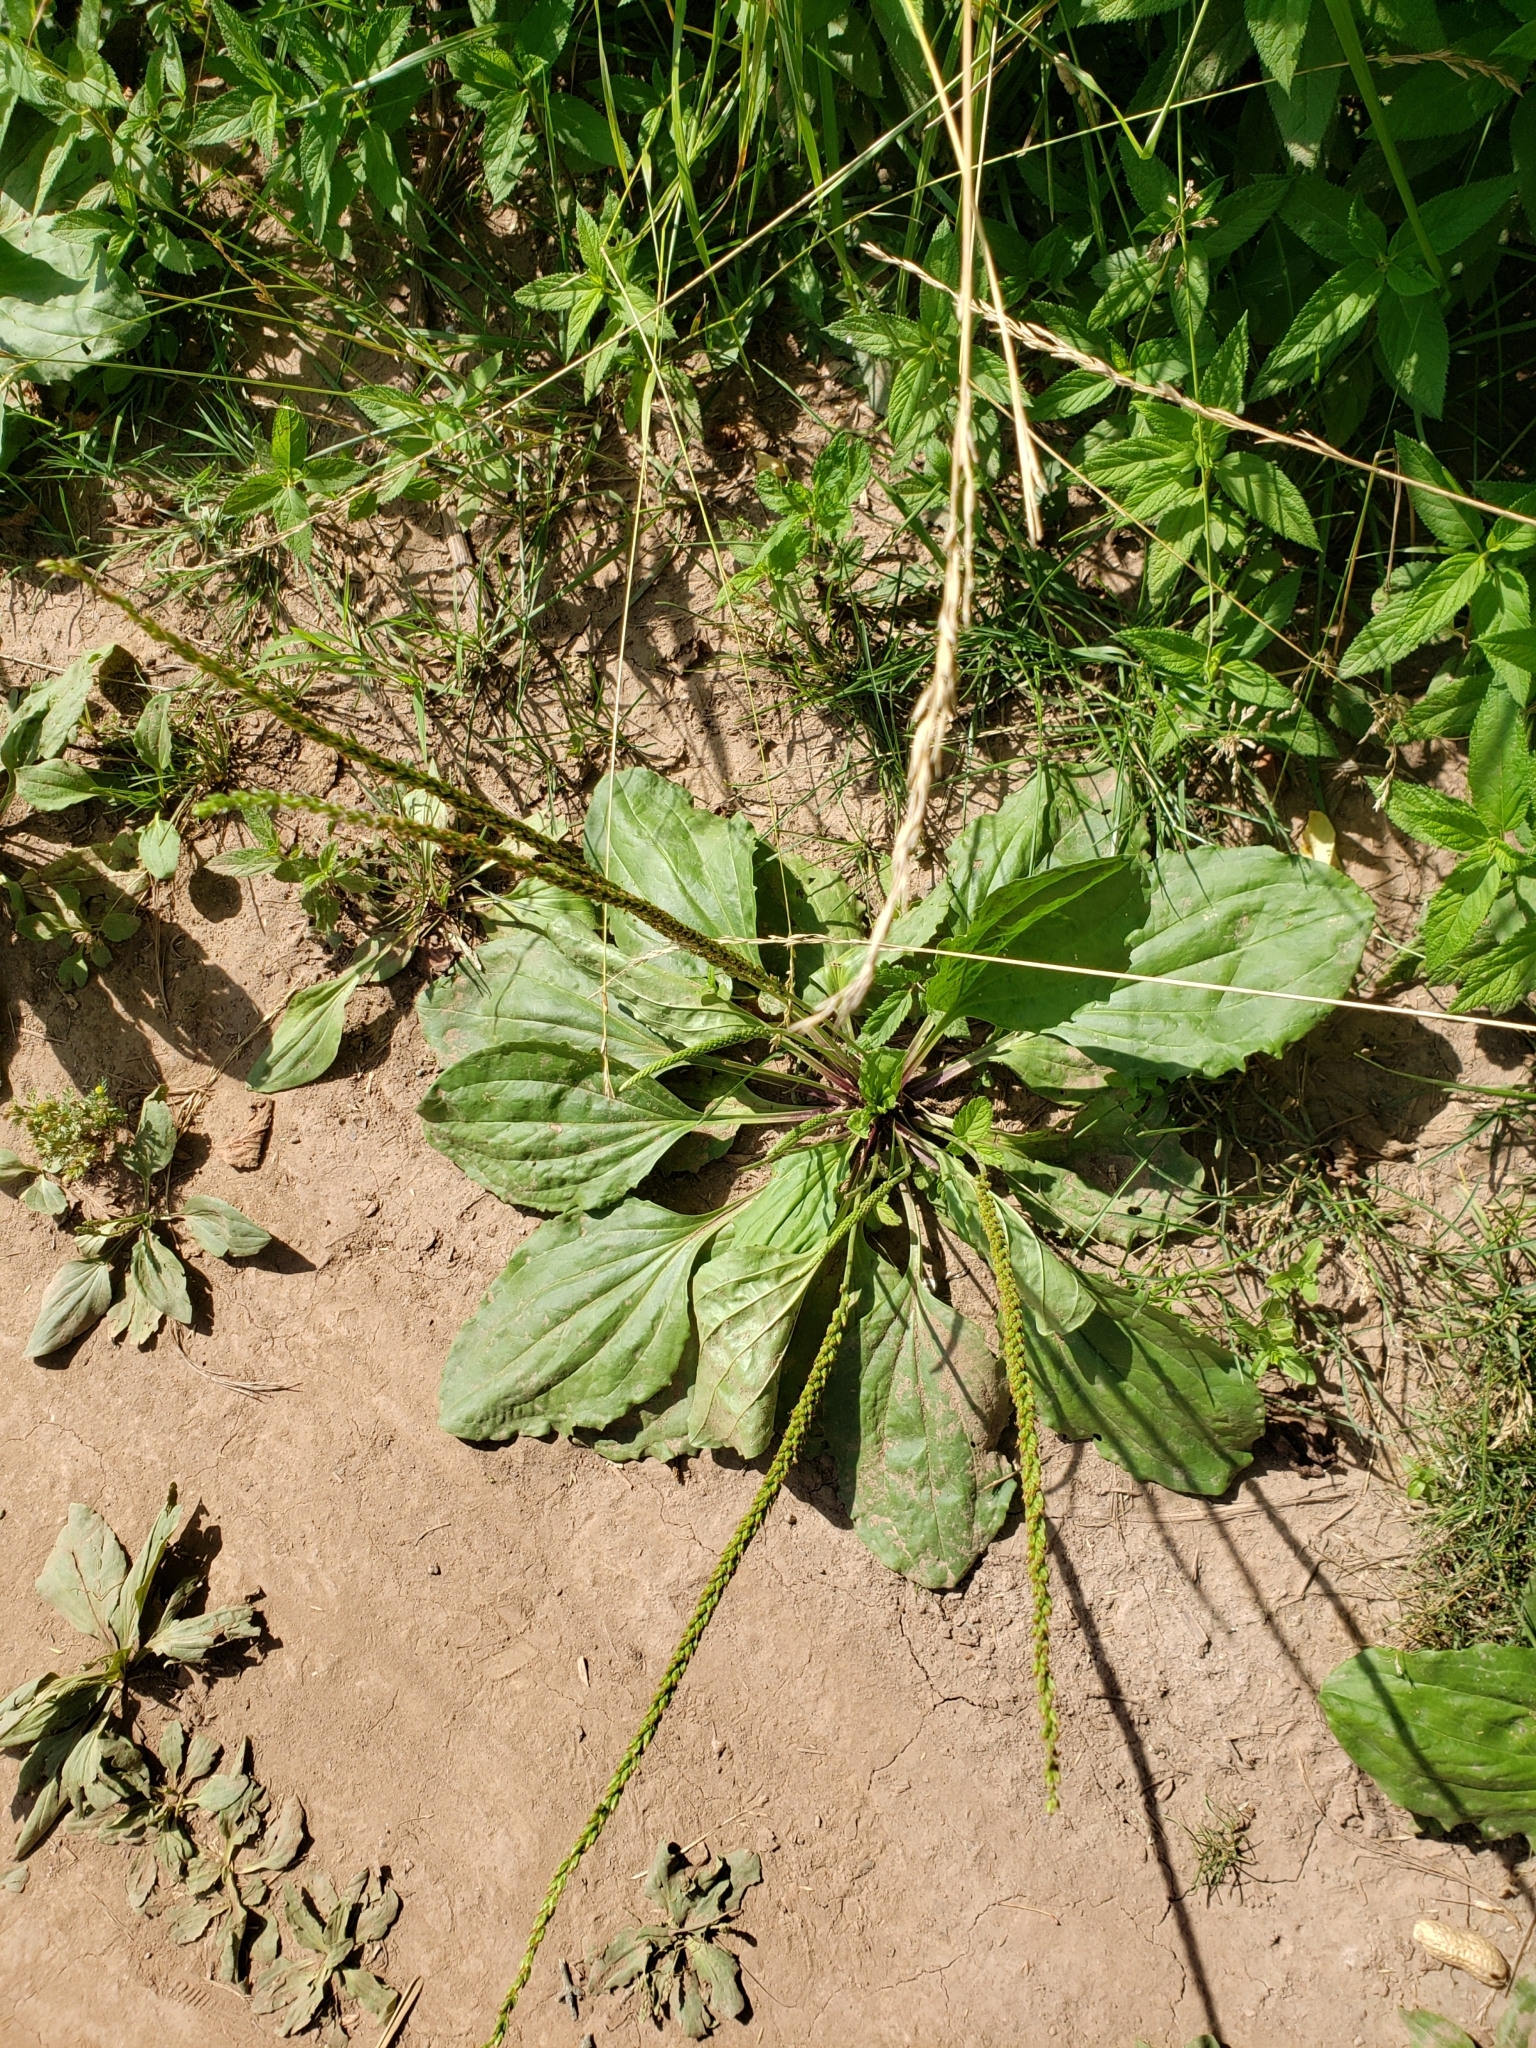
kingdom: Plantae
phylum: Tracheophyta
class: Magnoliopsida
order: Lamiales
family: Plantaginaceae
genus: Plantago
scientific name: Plantago major
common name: Common plantain
